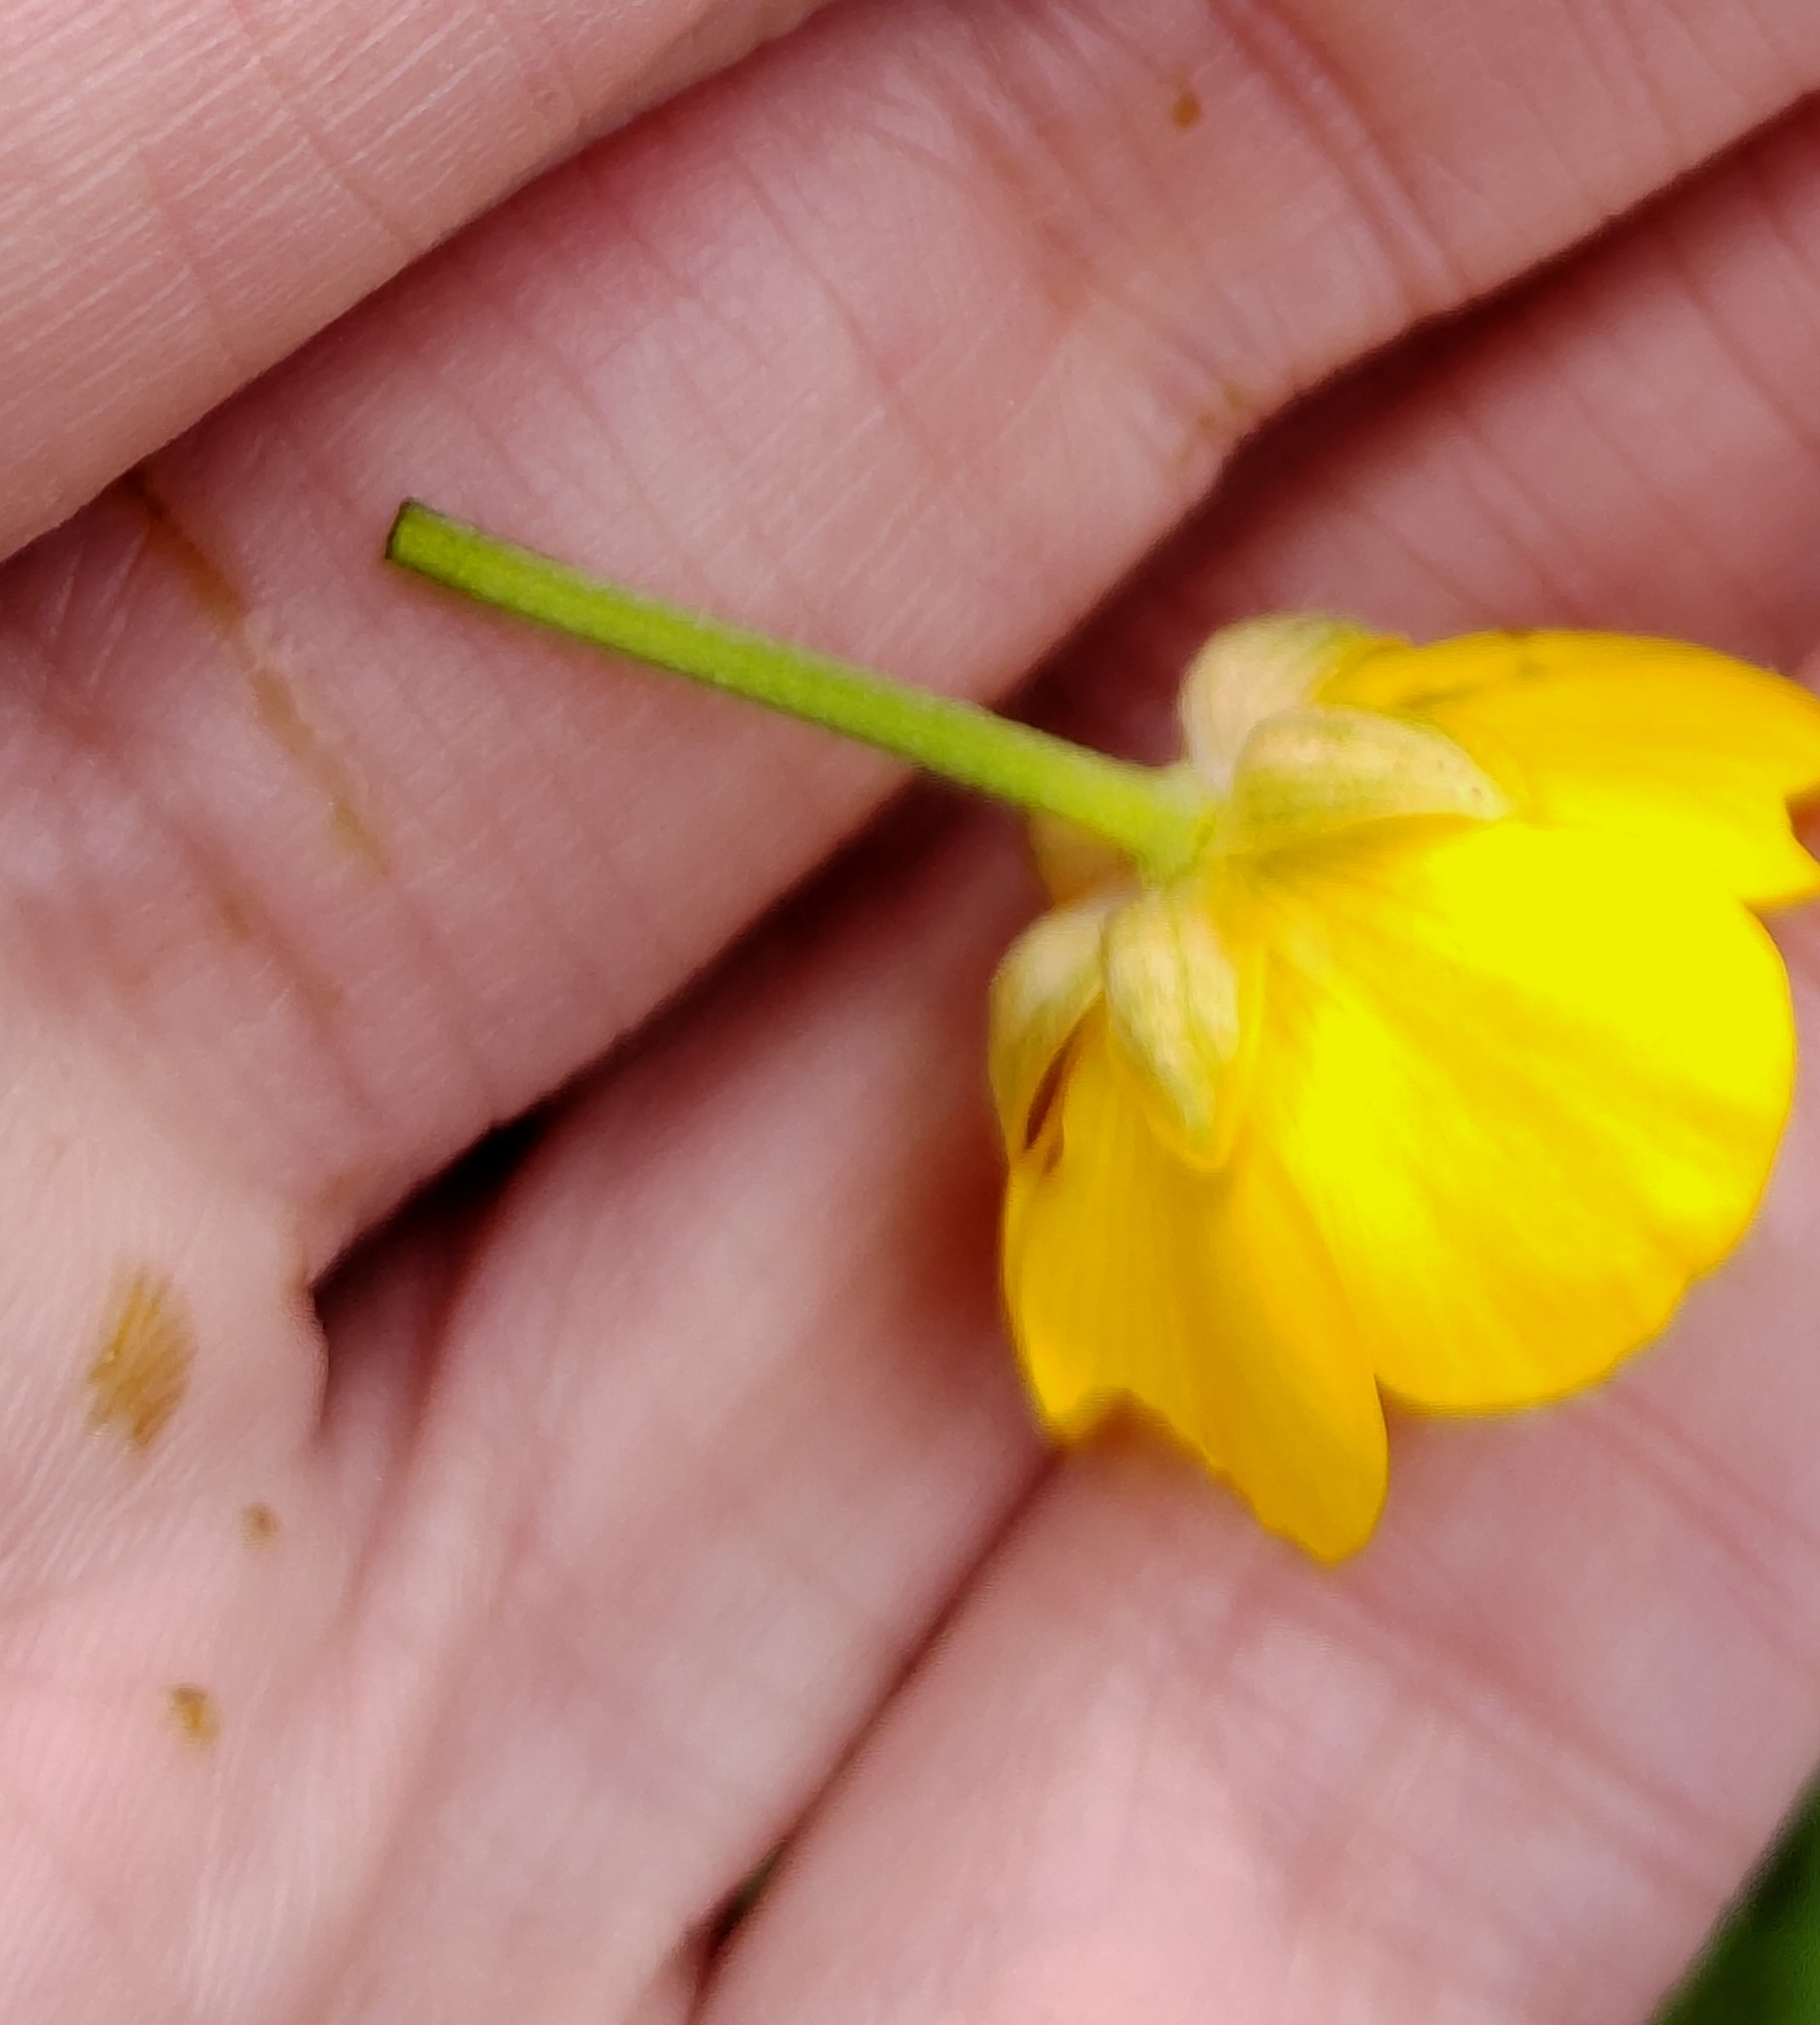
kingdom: Plantae
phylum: Tracheophyta
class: Magnoliopsida
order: Ranunculales
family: Ranunculaceae
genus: Ranunculus
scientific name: Ranunculus repens
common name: Creeping buttercup
